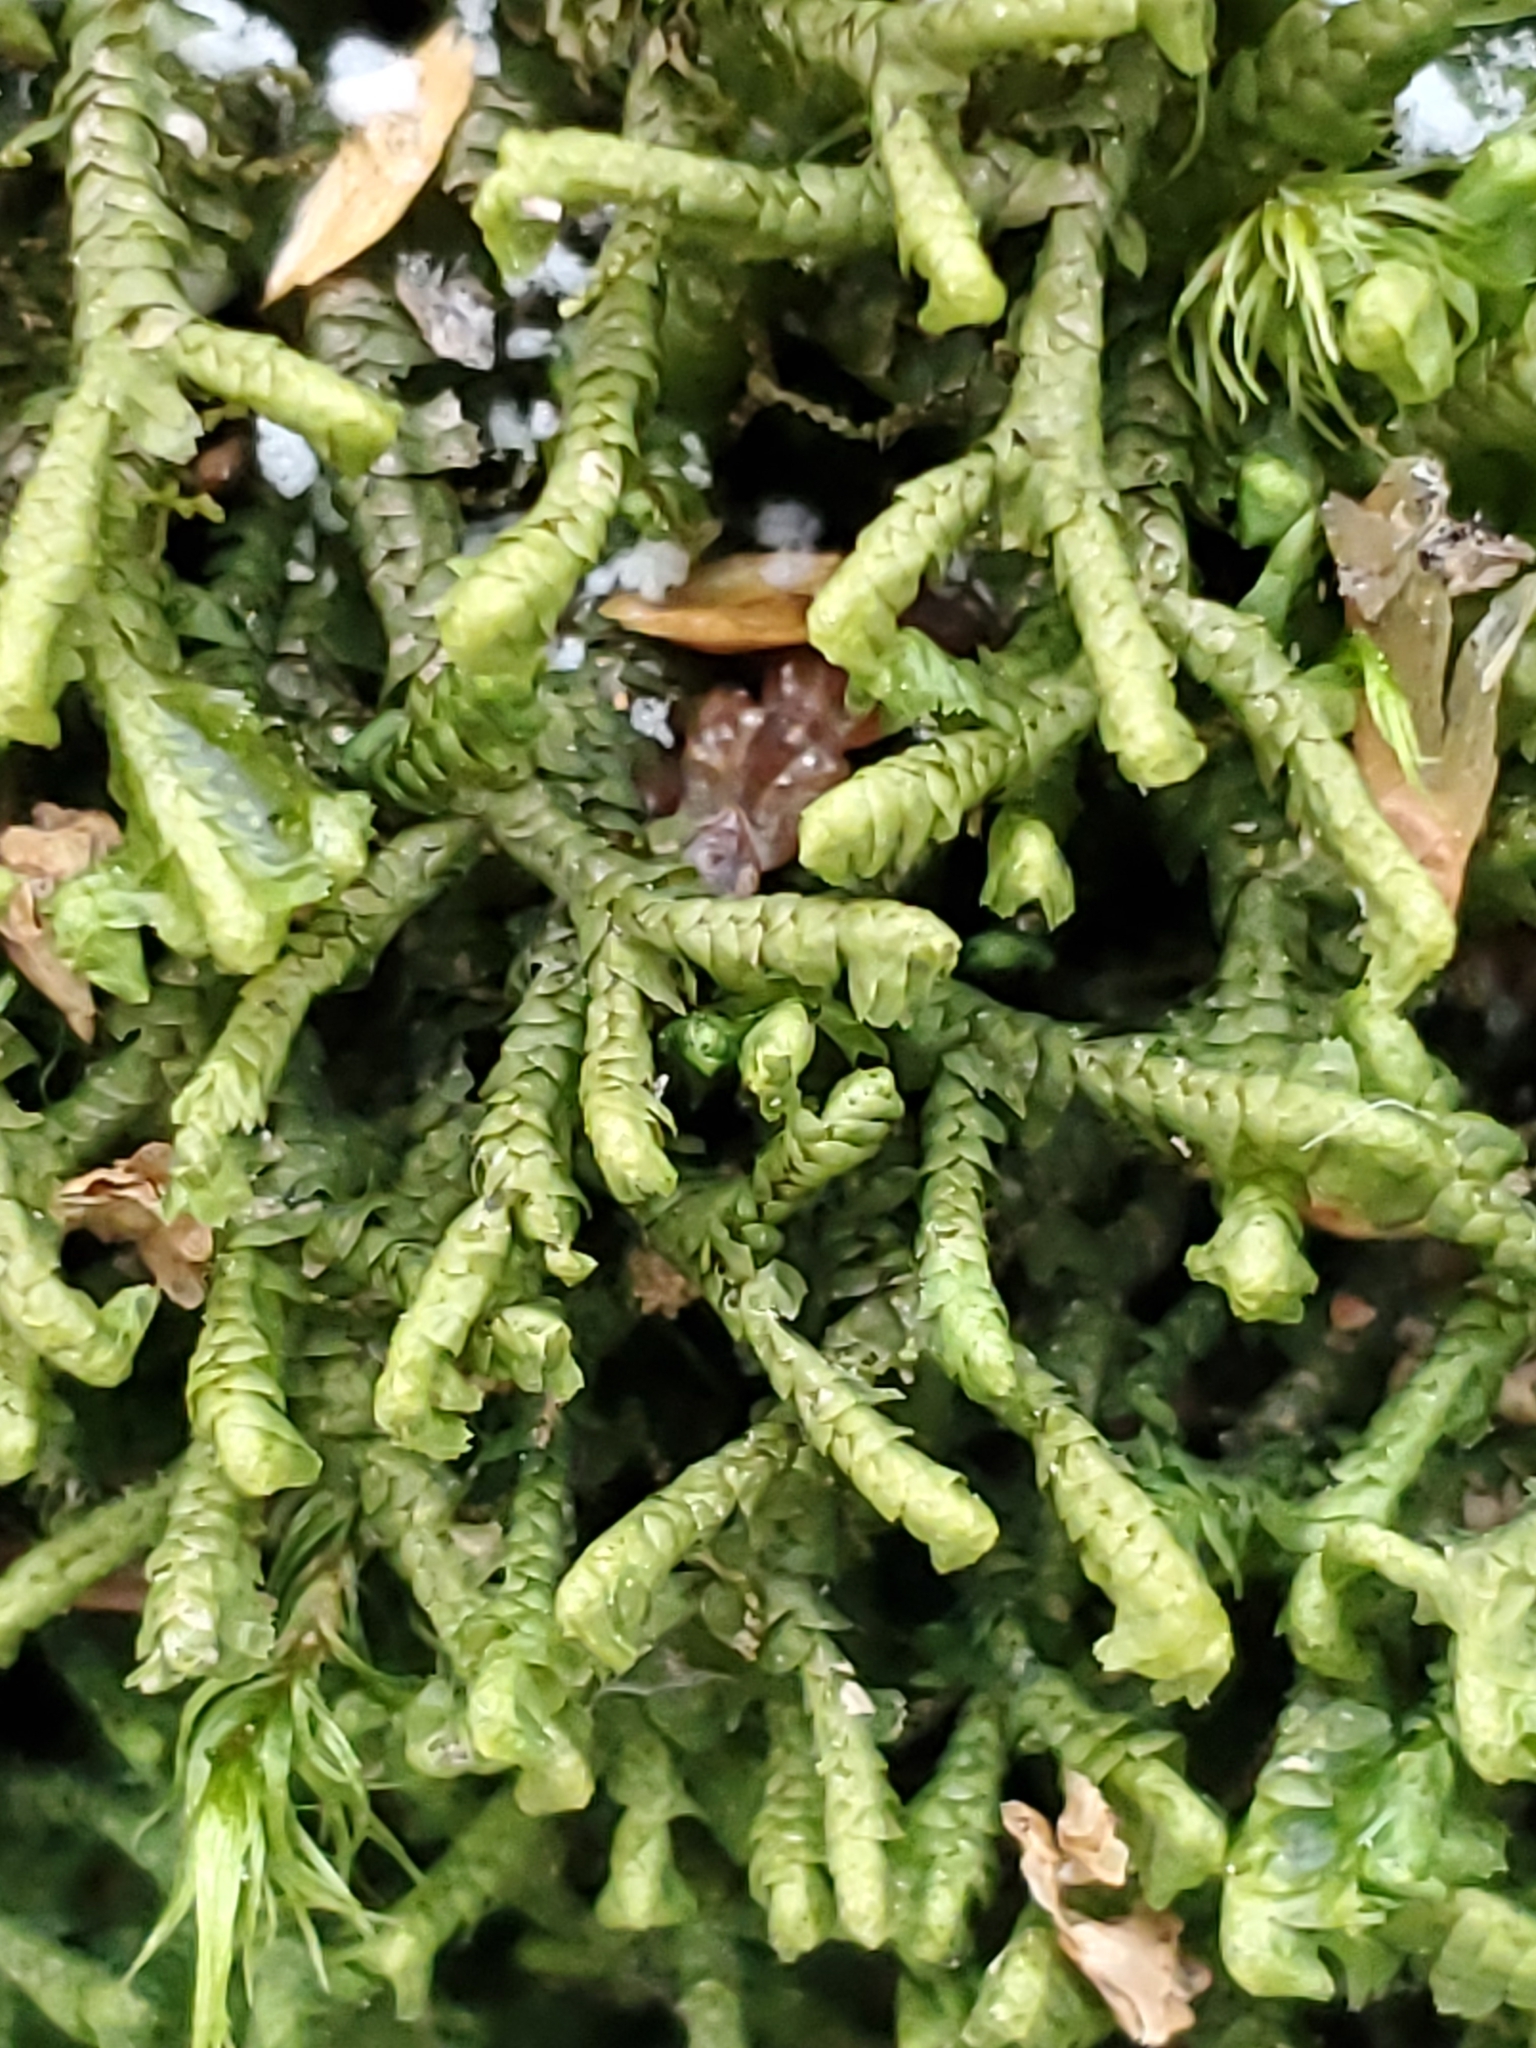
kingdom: Plantae
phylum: Marchantiophyta
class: Jungermanniopsida
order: Jungermanniales
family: Lepidoziaceae
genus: Bazzania
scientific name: Bazzania trilobata
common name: Three-lobed whipwort
